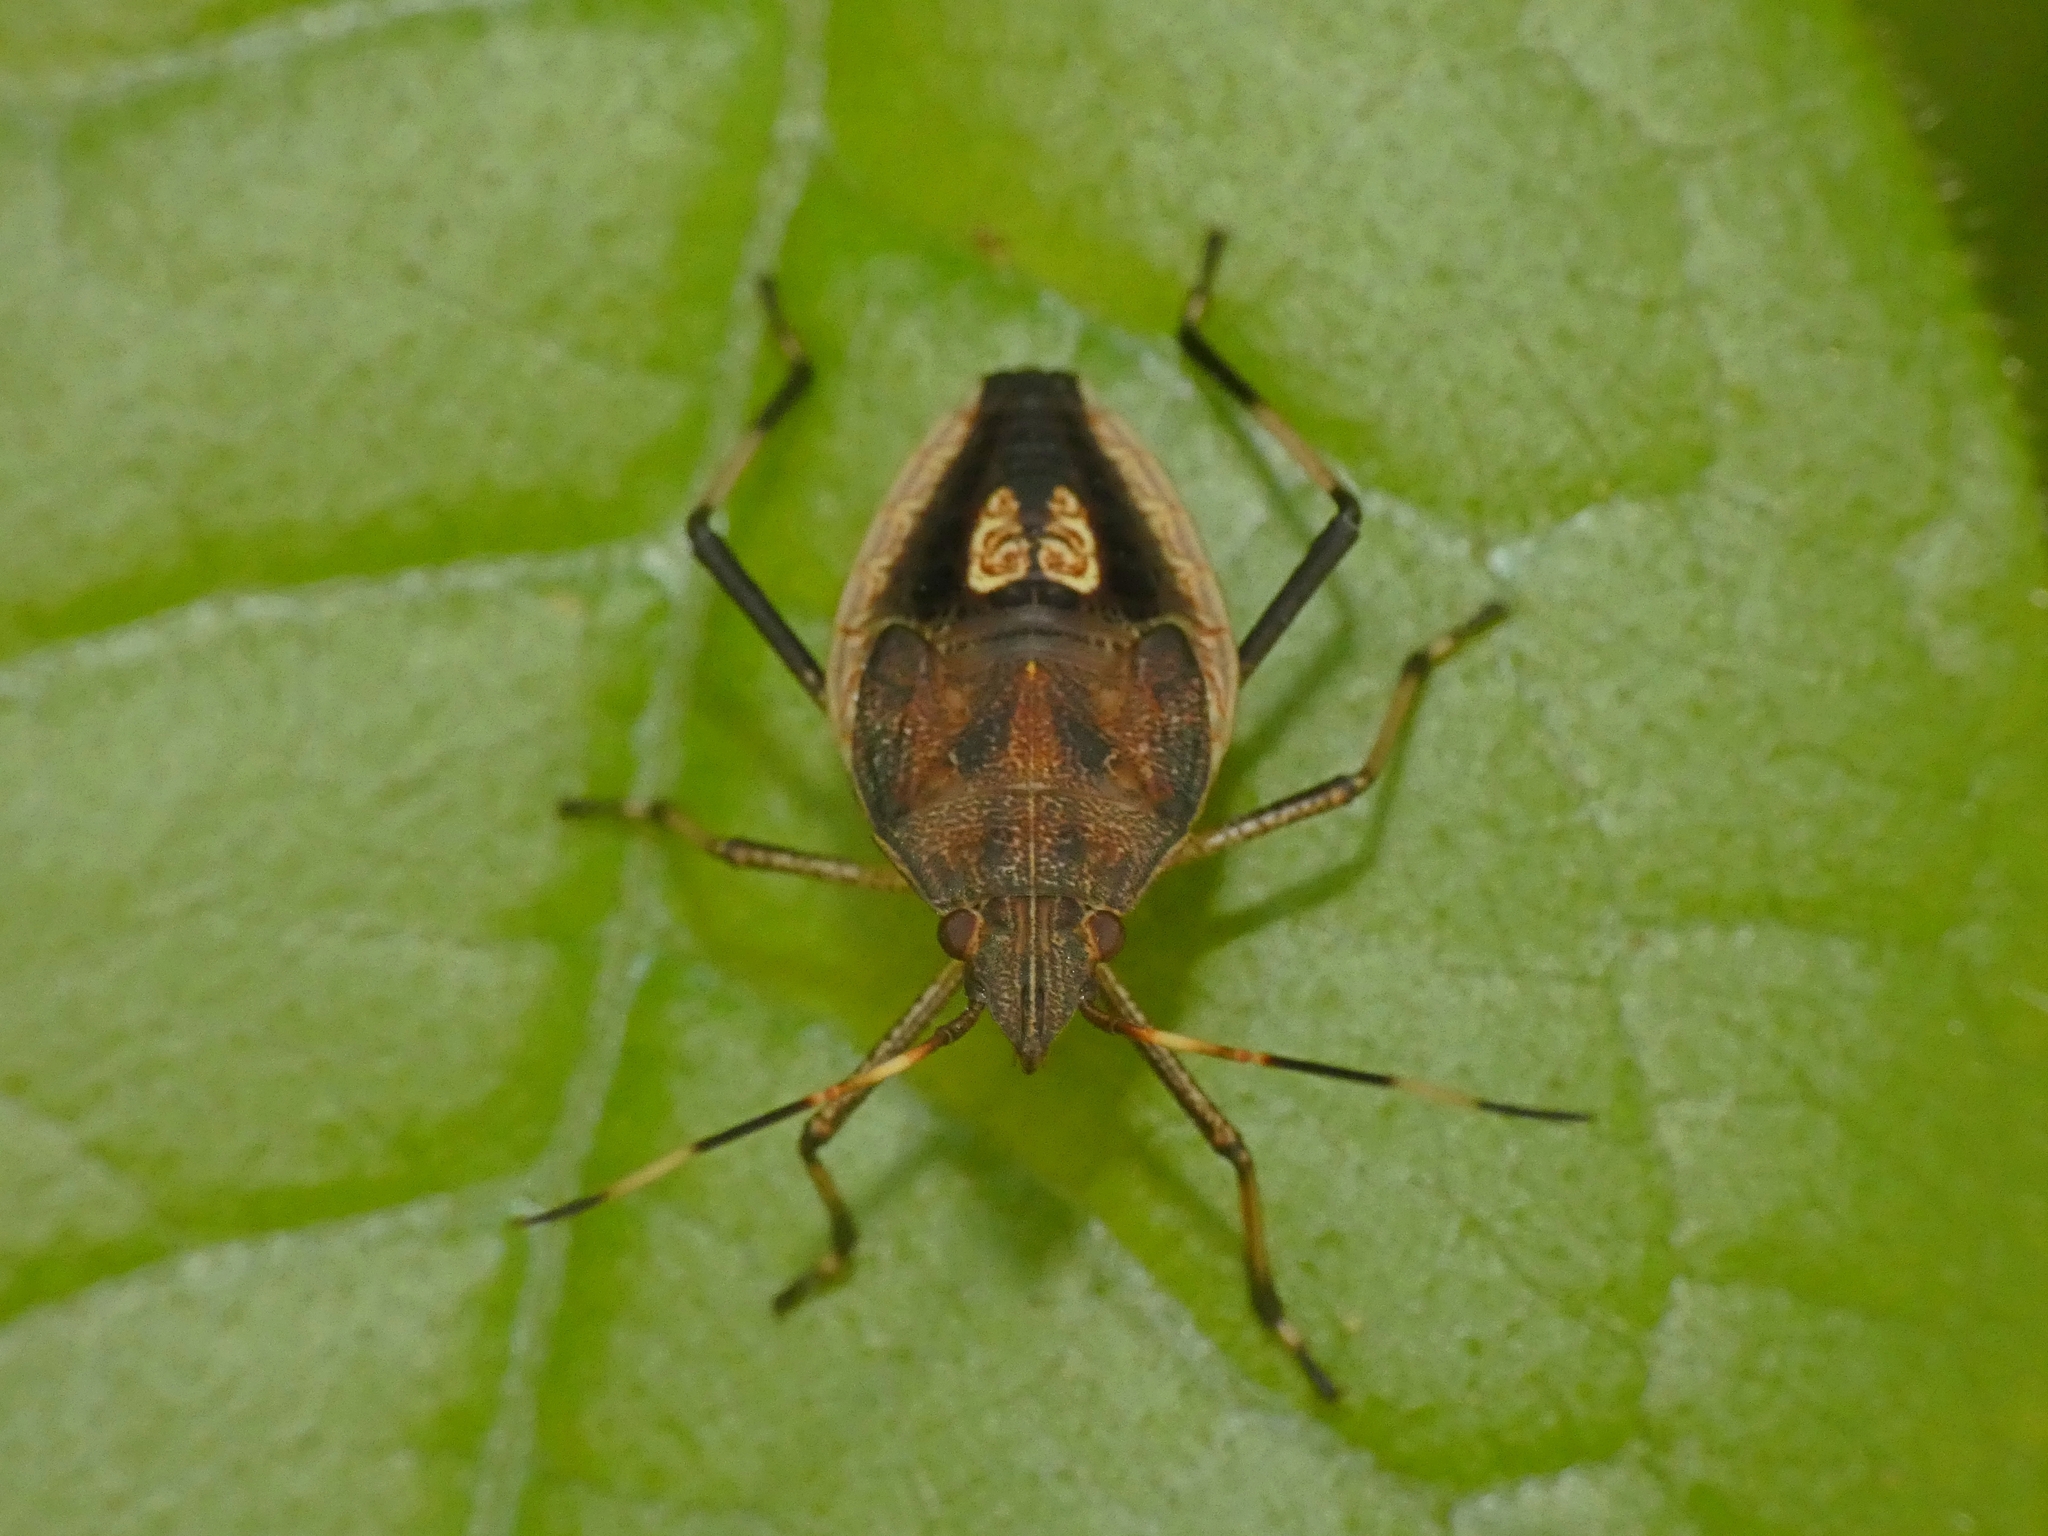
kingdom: Animalia
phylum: Arthropoda
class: Insecta
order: Hemiptera
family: Pentatomidae
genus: Poecilometis
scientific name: Poecilometis
